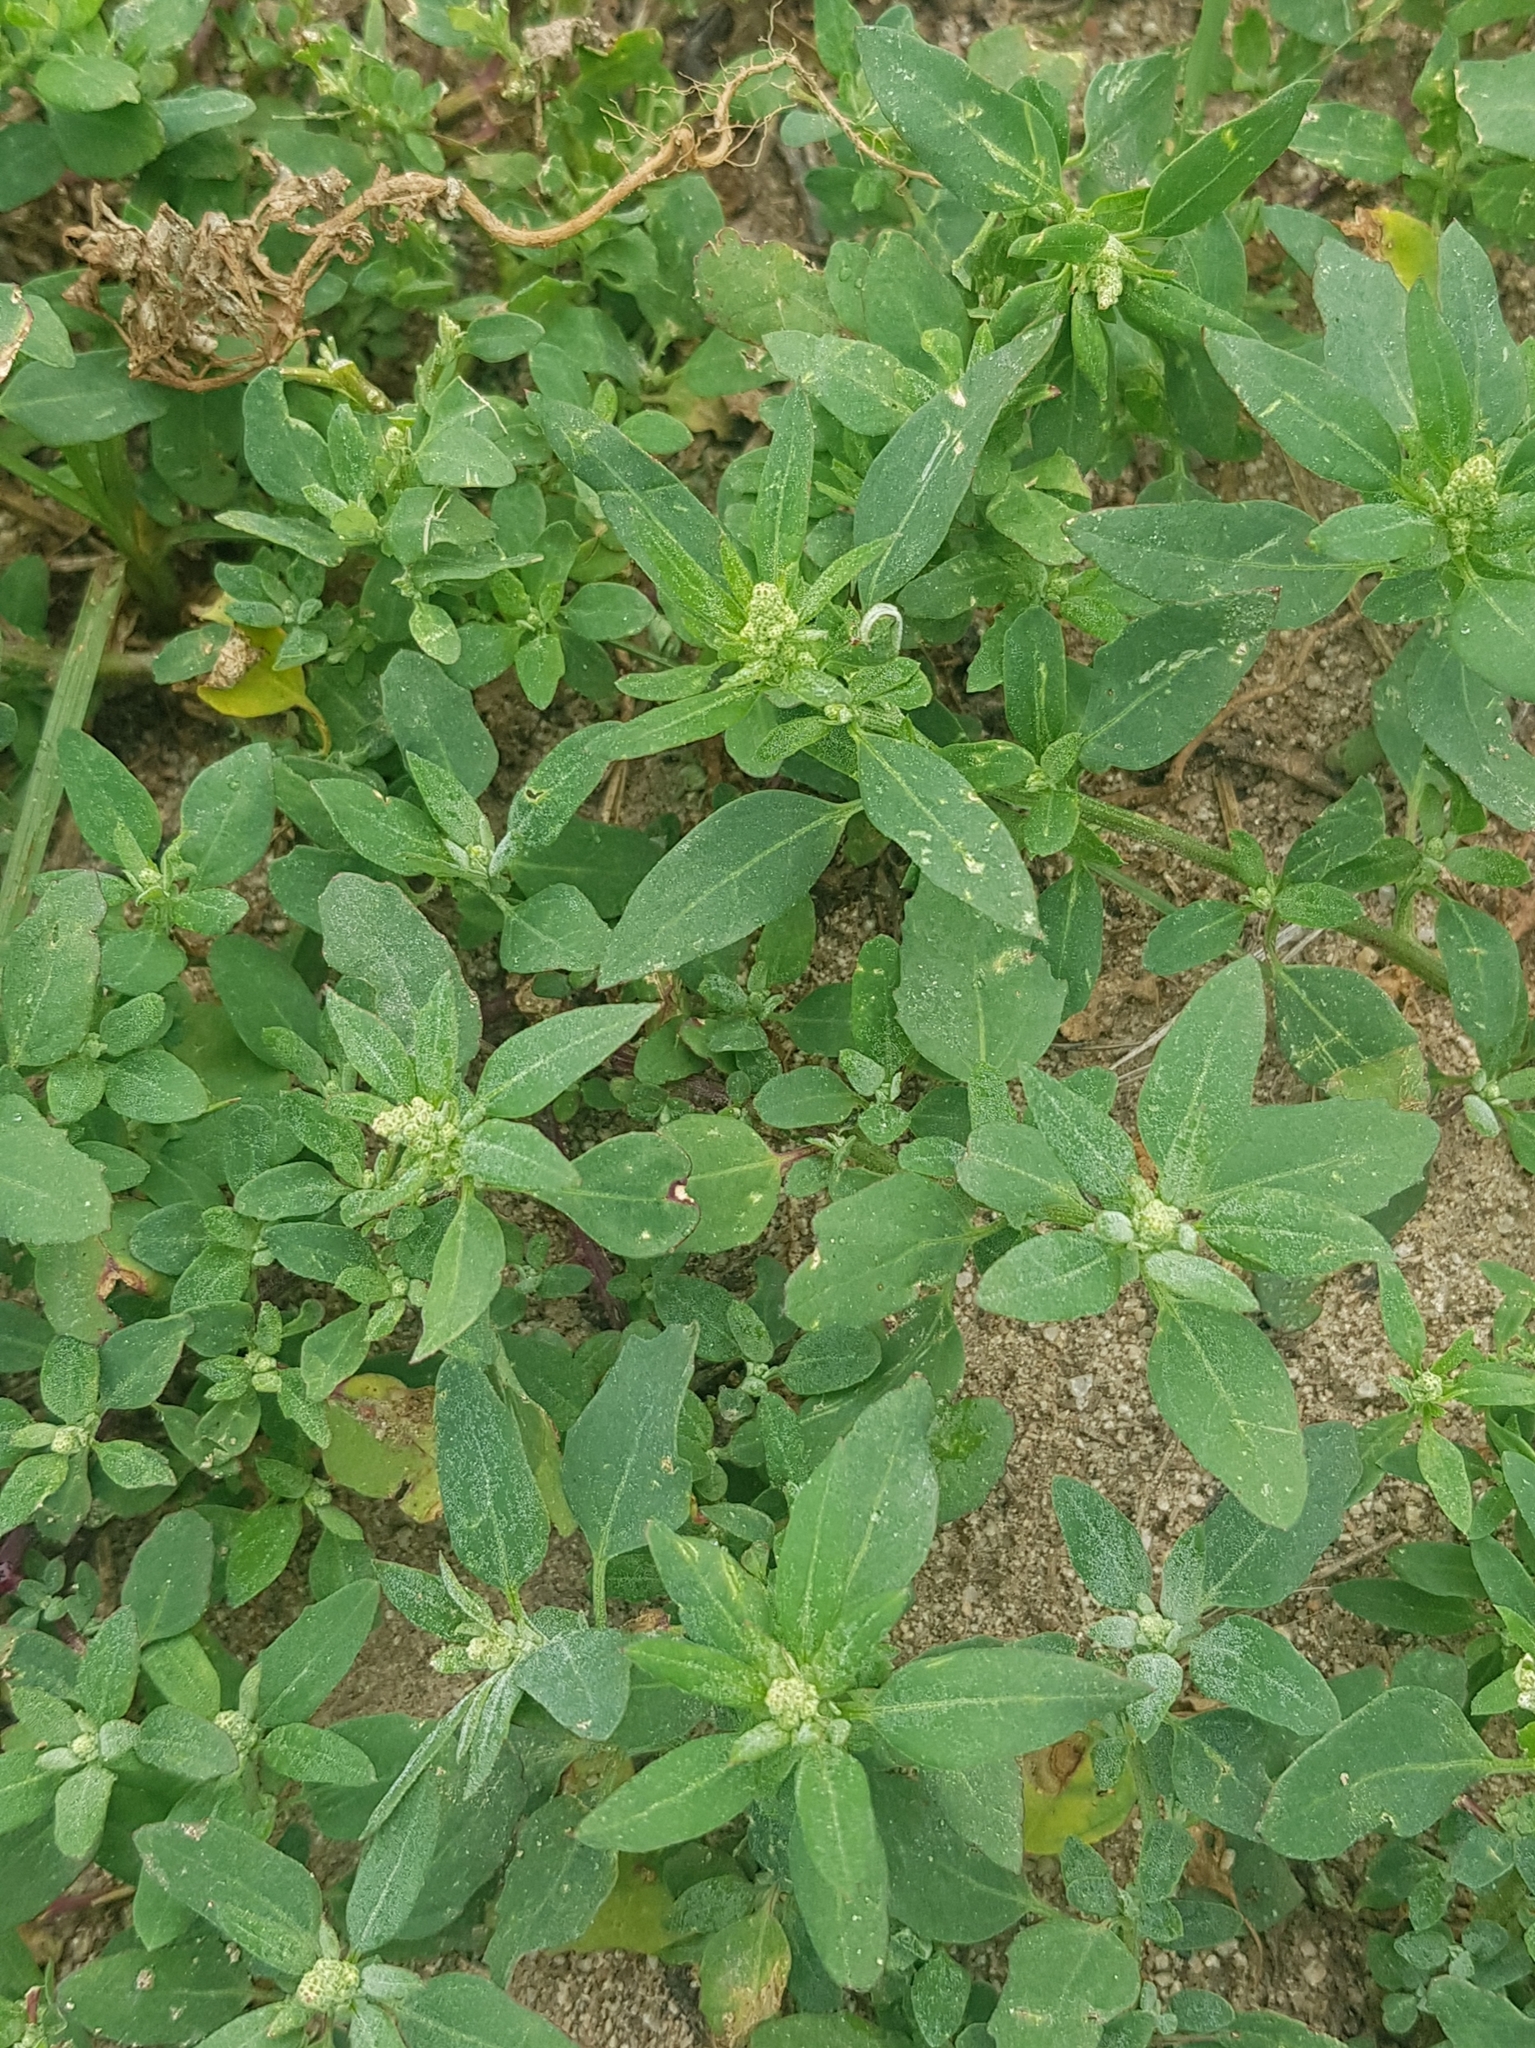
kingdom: Plantae
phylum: Tracheophyta
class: Magnoliopsida
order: Caryophyllales
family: Amaranthaceae
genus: Chenopodium
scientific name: Chenopodium acuminatum
